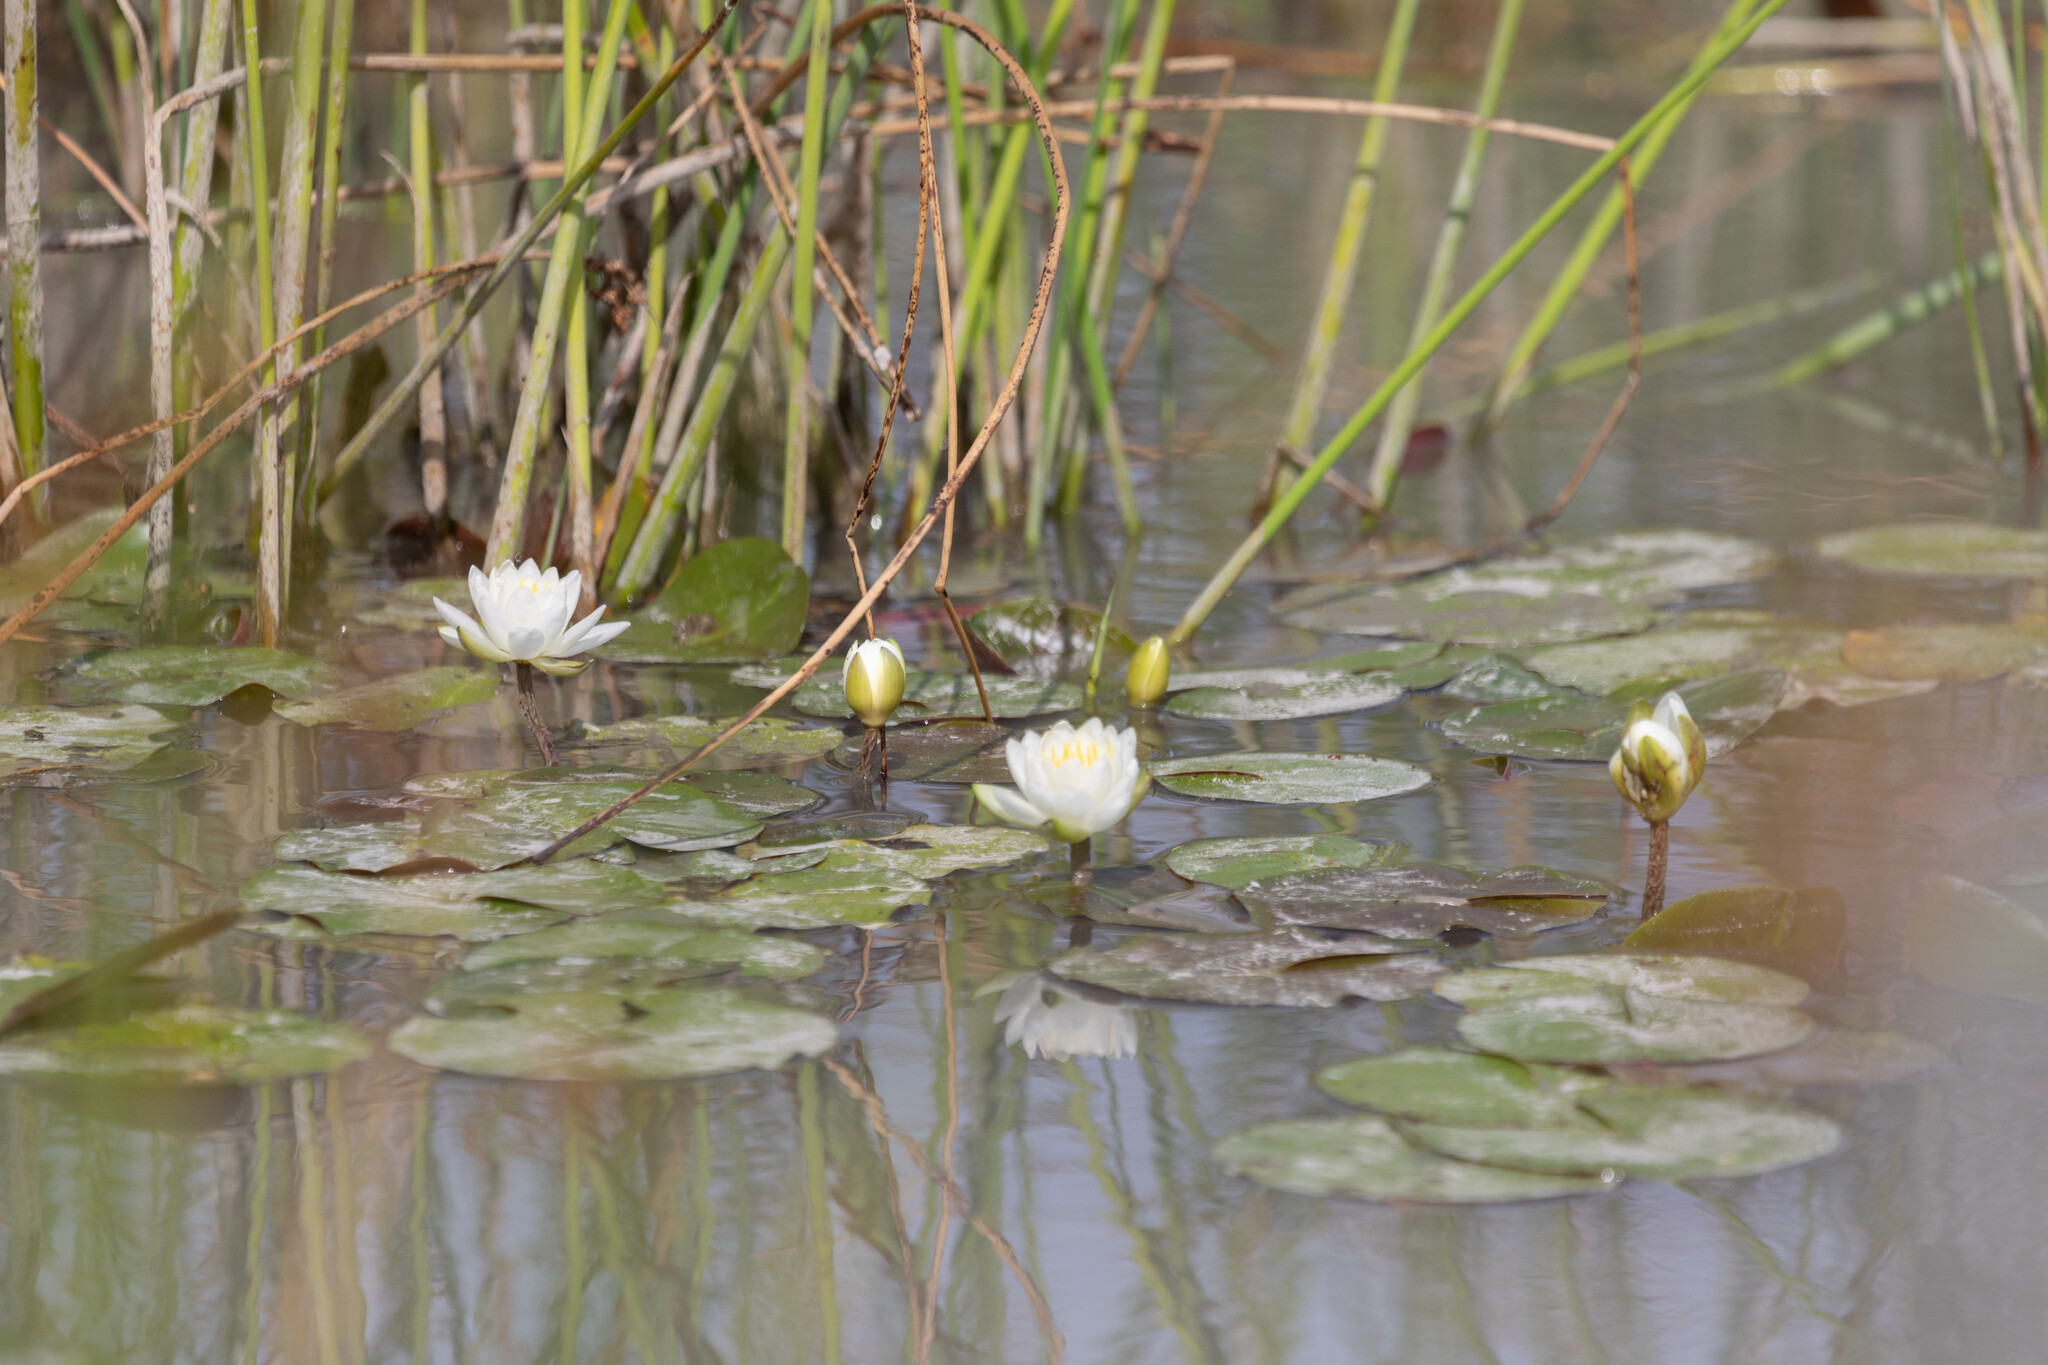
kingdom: Plantae
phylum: Tracheophyta
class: Magnoliopsida
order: Nymphaeales
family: Nymphaeaceae
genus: Nymphaea
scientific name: Nymphaea odorata
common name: Fragrant water-lily
